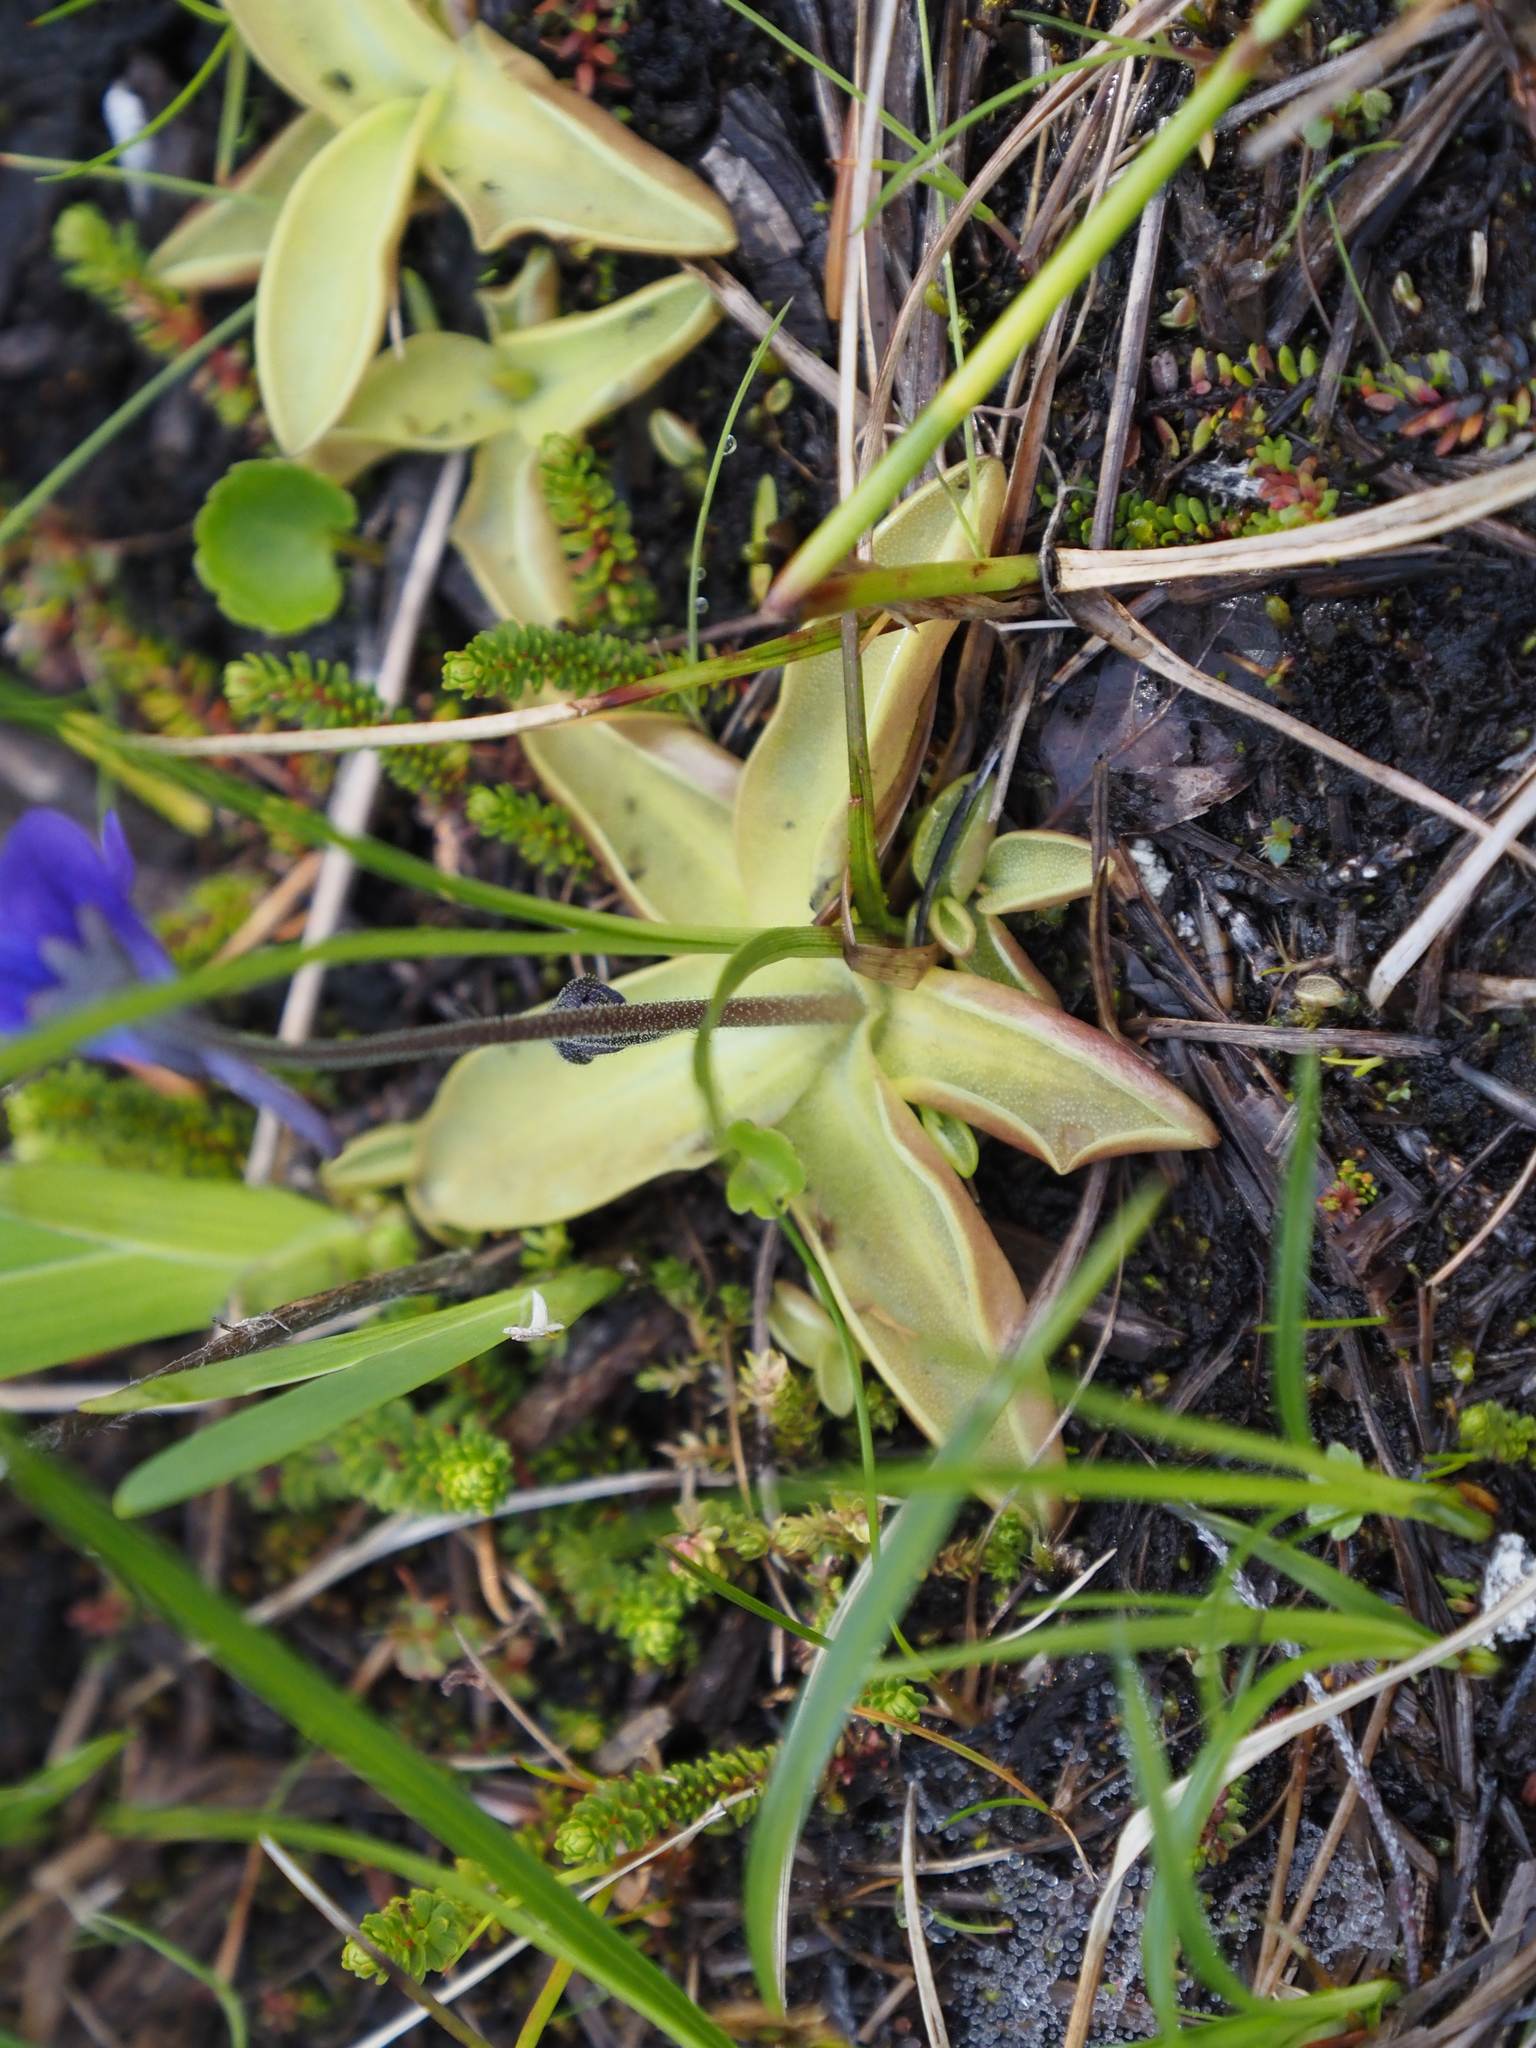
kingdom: Plantae
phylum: Tracheophyta
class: Magnoliopsida
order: Lamiales
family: Lentibulariaceae
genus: Pinguicula
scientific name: Pinguicula vulgaris
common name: Common butterwort
